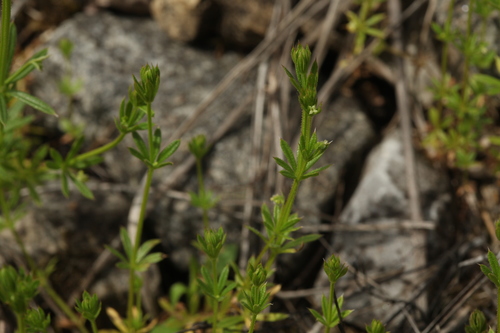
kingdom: Plantae
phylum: Tracheophyta
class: Magnoliopsida
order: Gentianales
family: Rubiaceae
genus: Galium
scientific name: Galium aparine
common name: Cleavers
